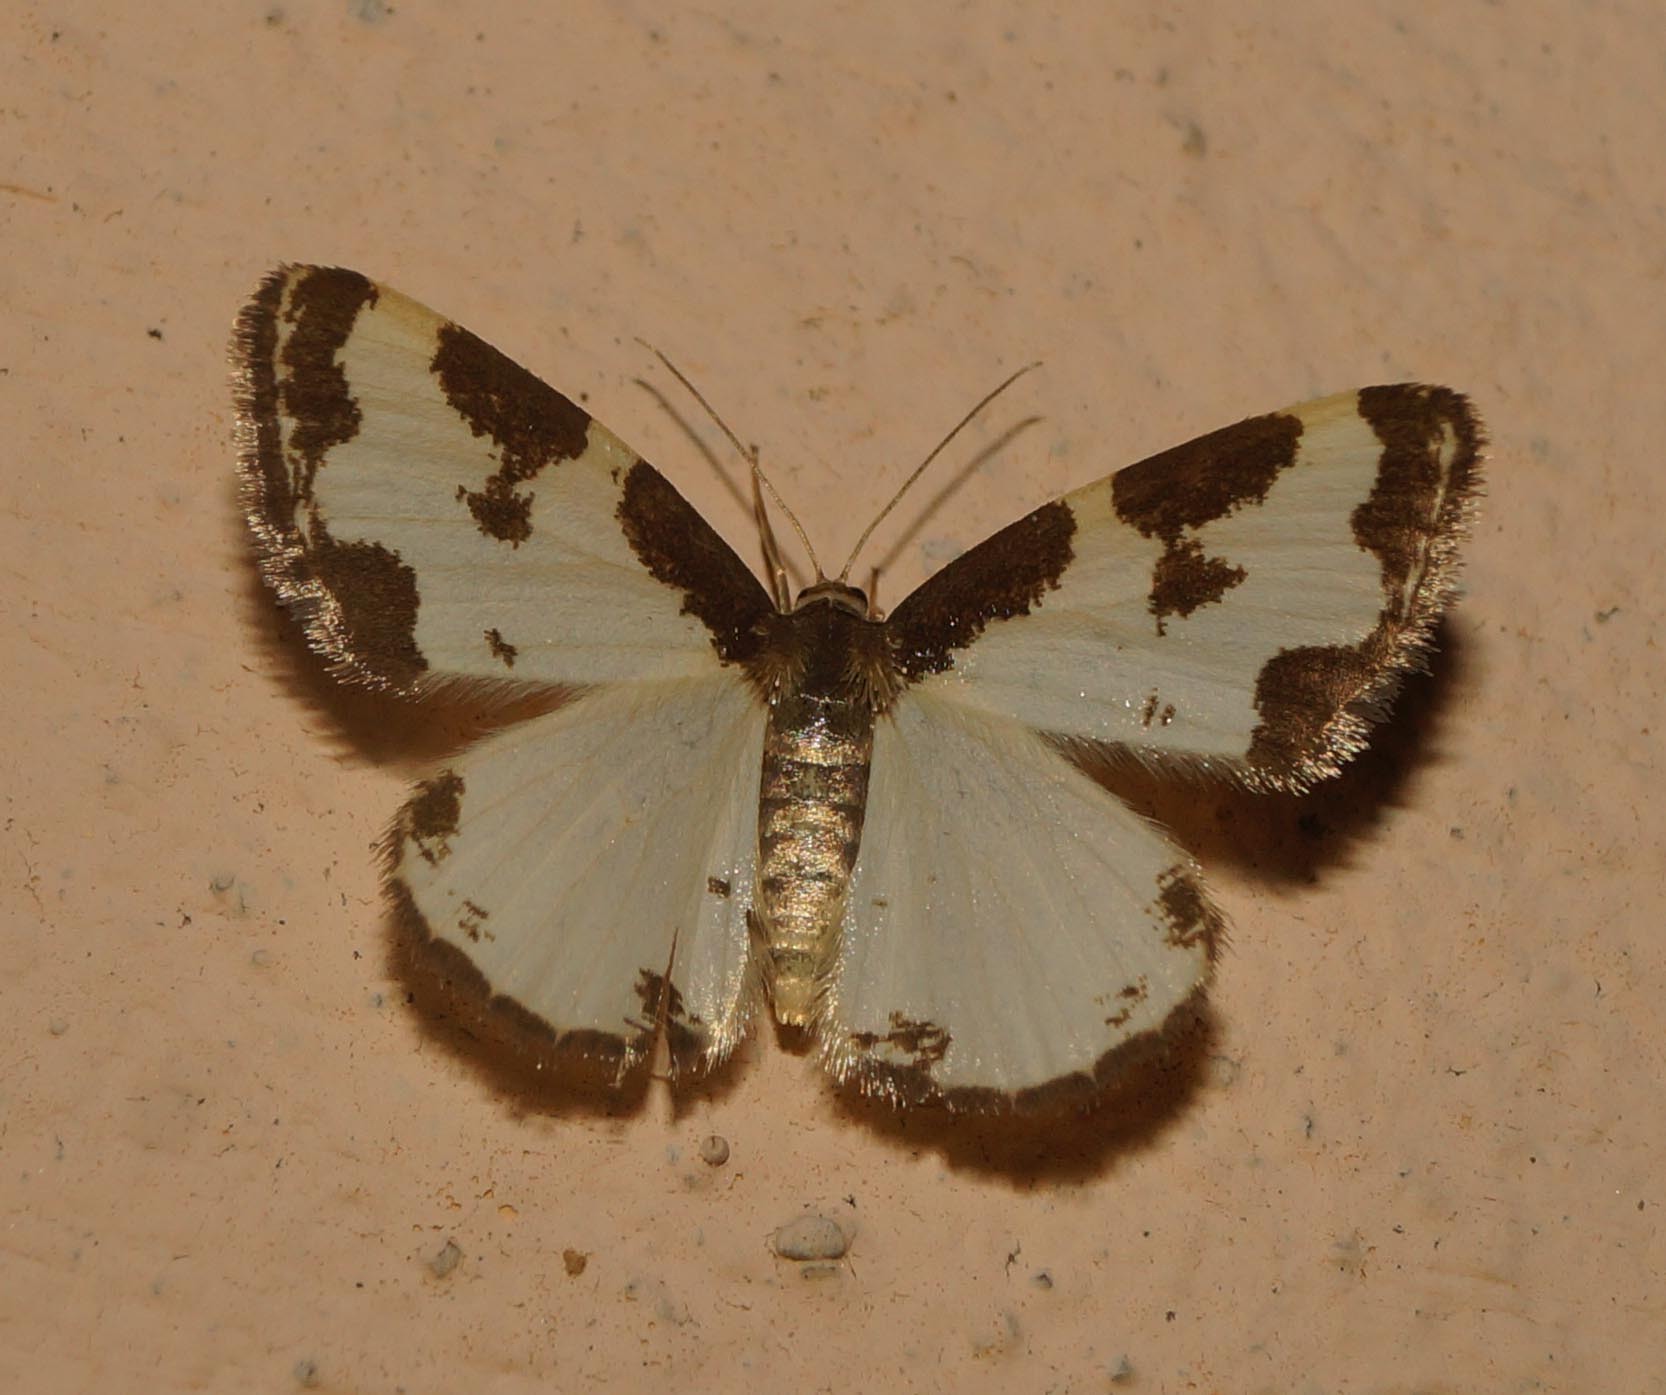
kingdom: Animalia
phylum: Arthropoda
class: Insecta
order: Lepidoptera
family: Geometridae
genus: Lomaspilis
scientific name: Lomaspilis marginata
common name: Clouded border
